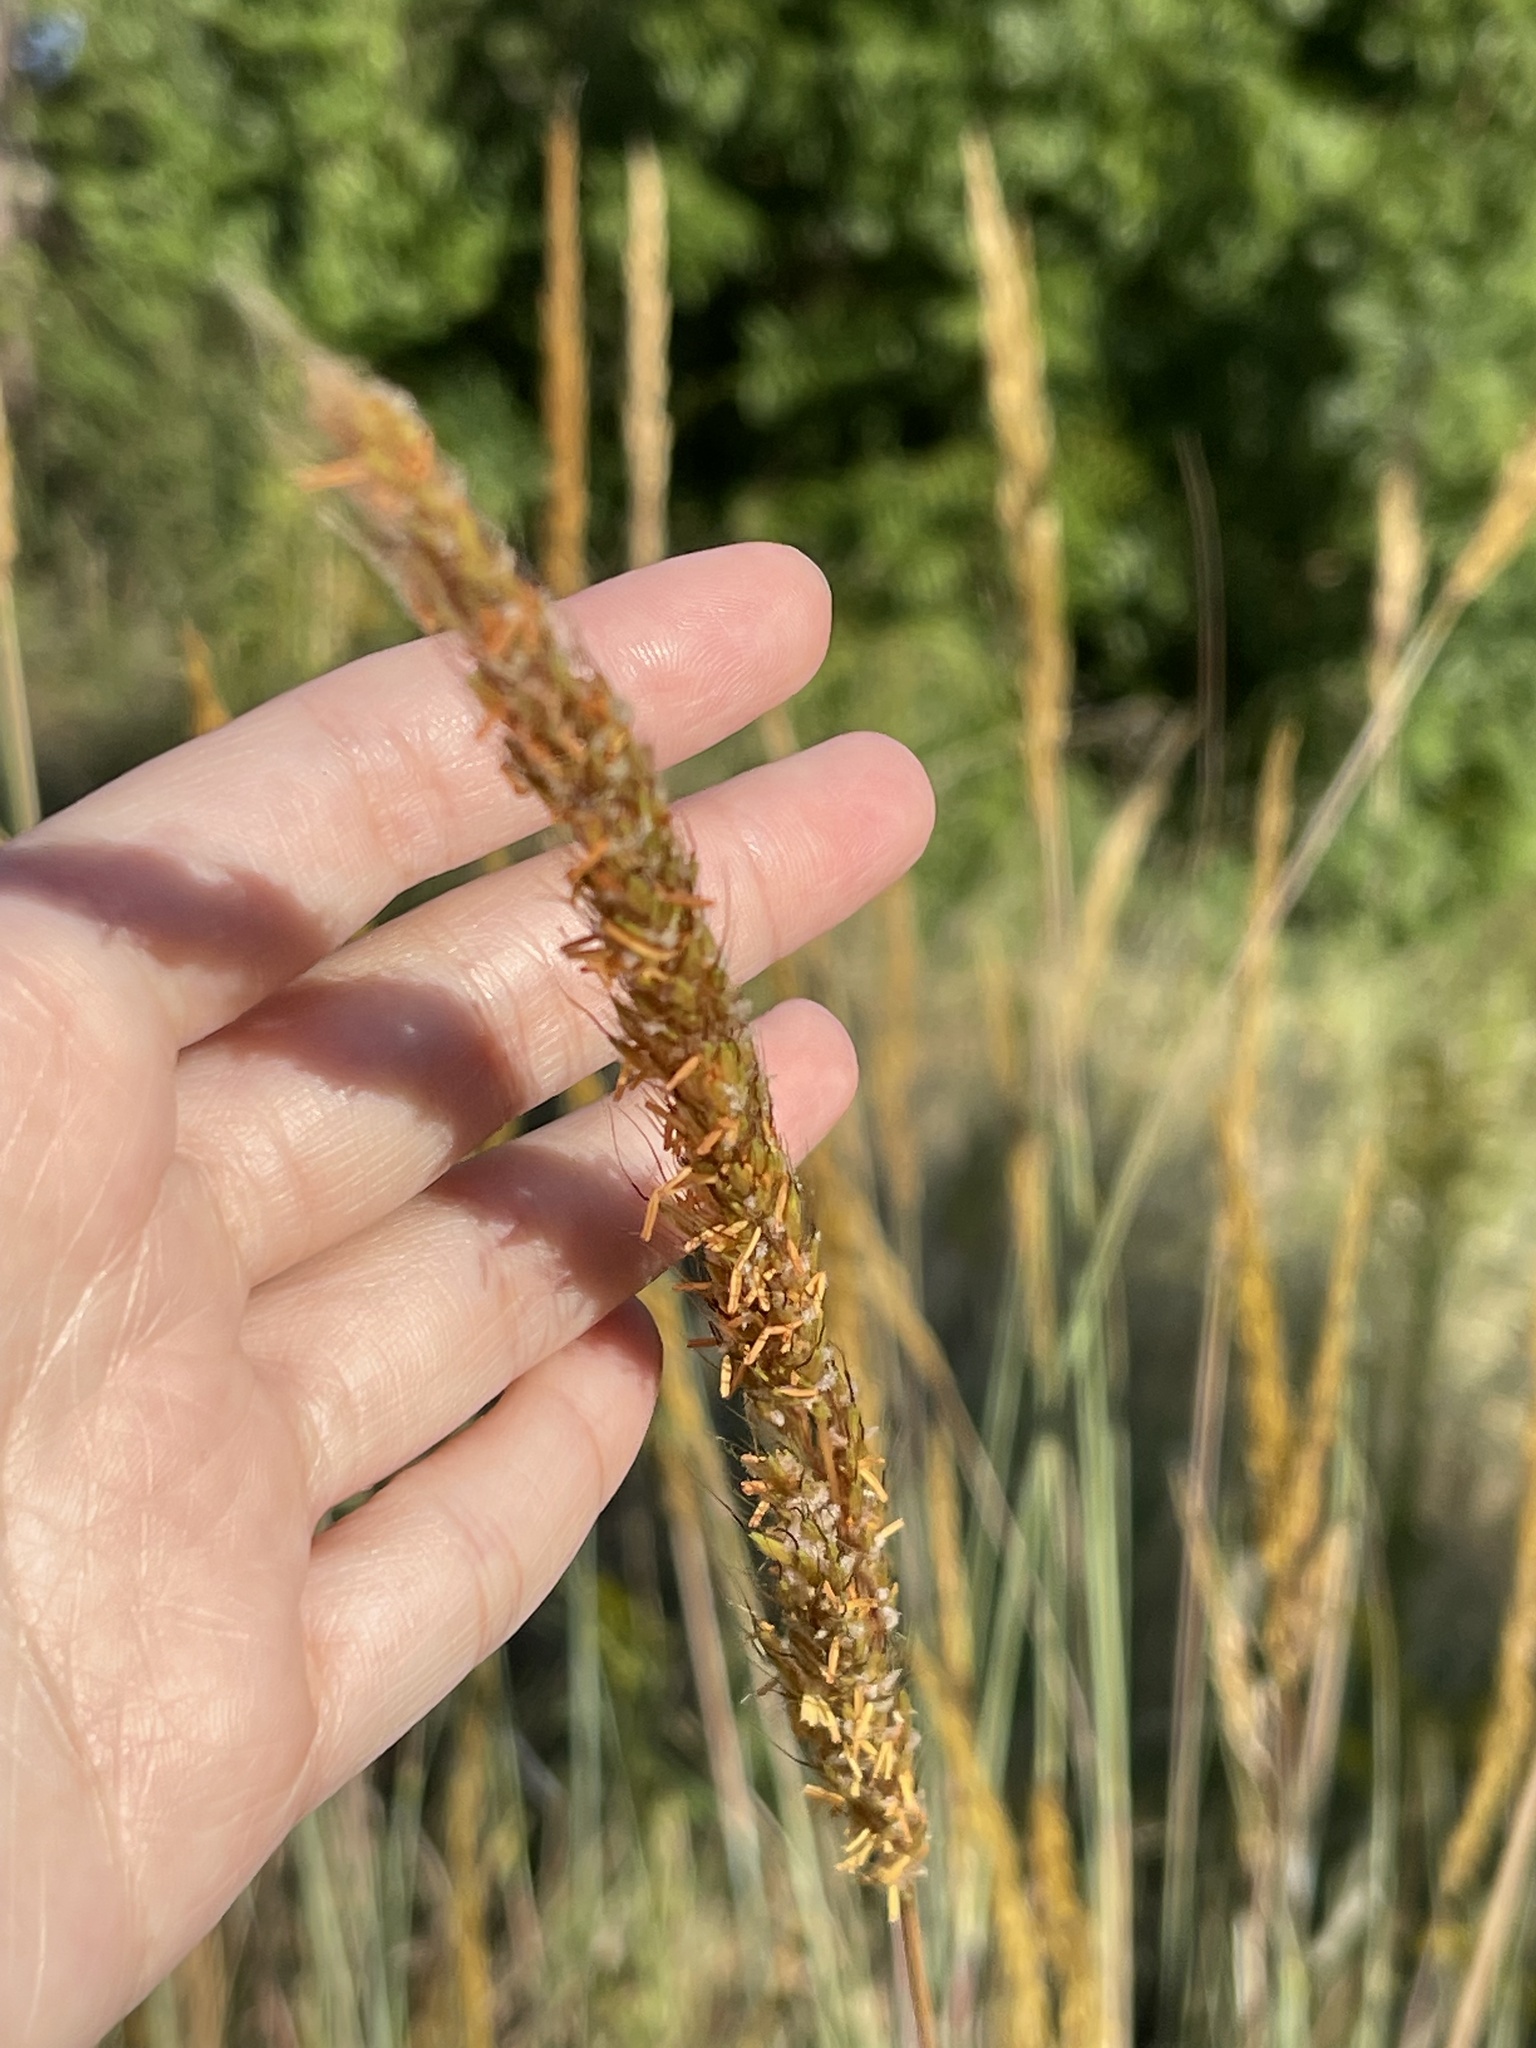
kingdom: Plantae
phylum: Tracheophyta
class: Liliopsida
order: Poales
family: Poaceae
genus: Sorghastrum
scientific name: Sorghastrum nutans
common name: Indian grass
